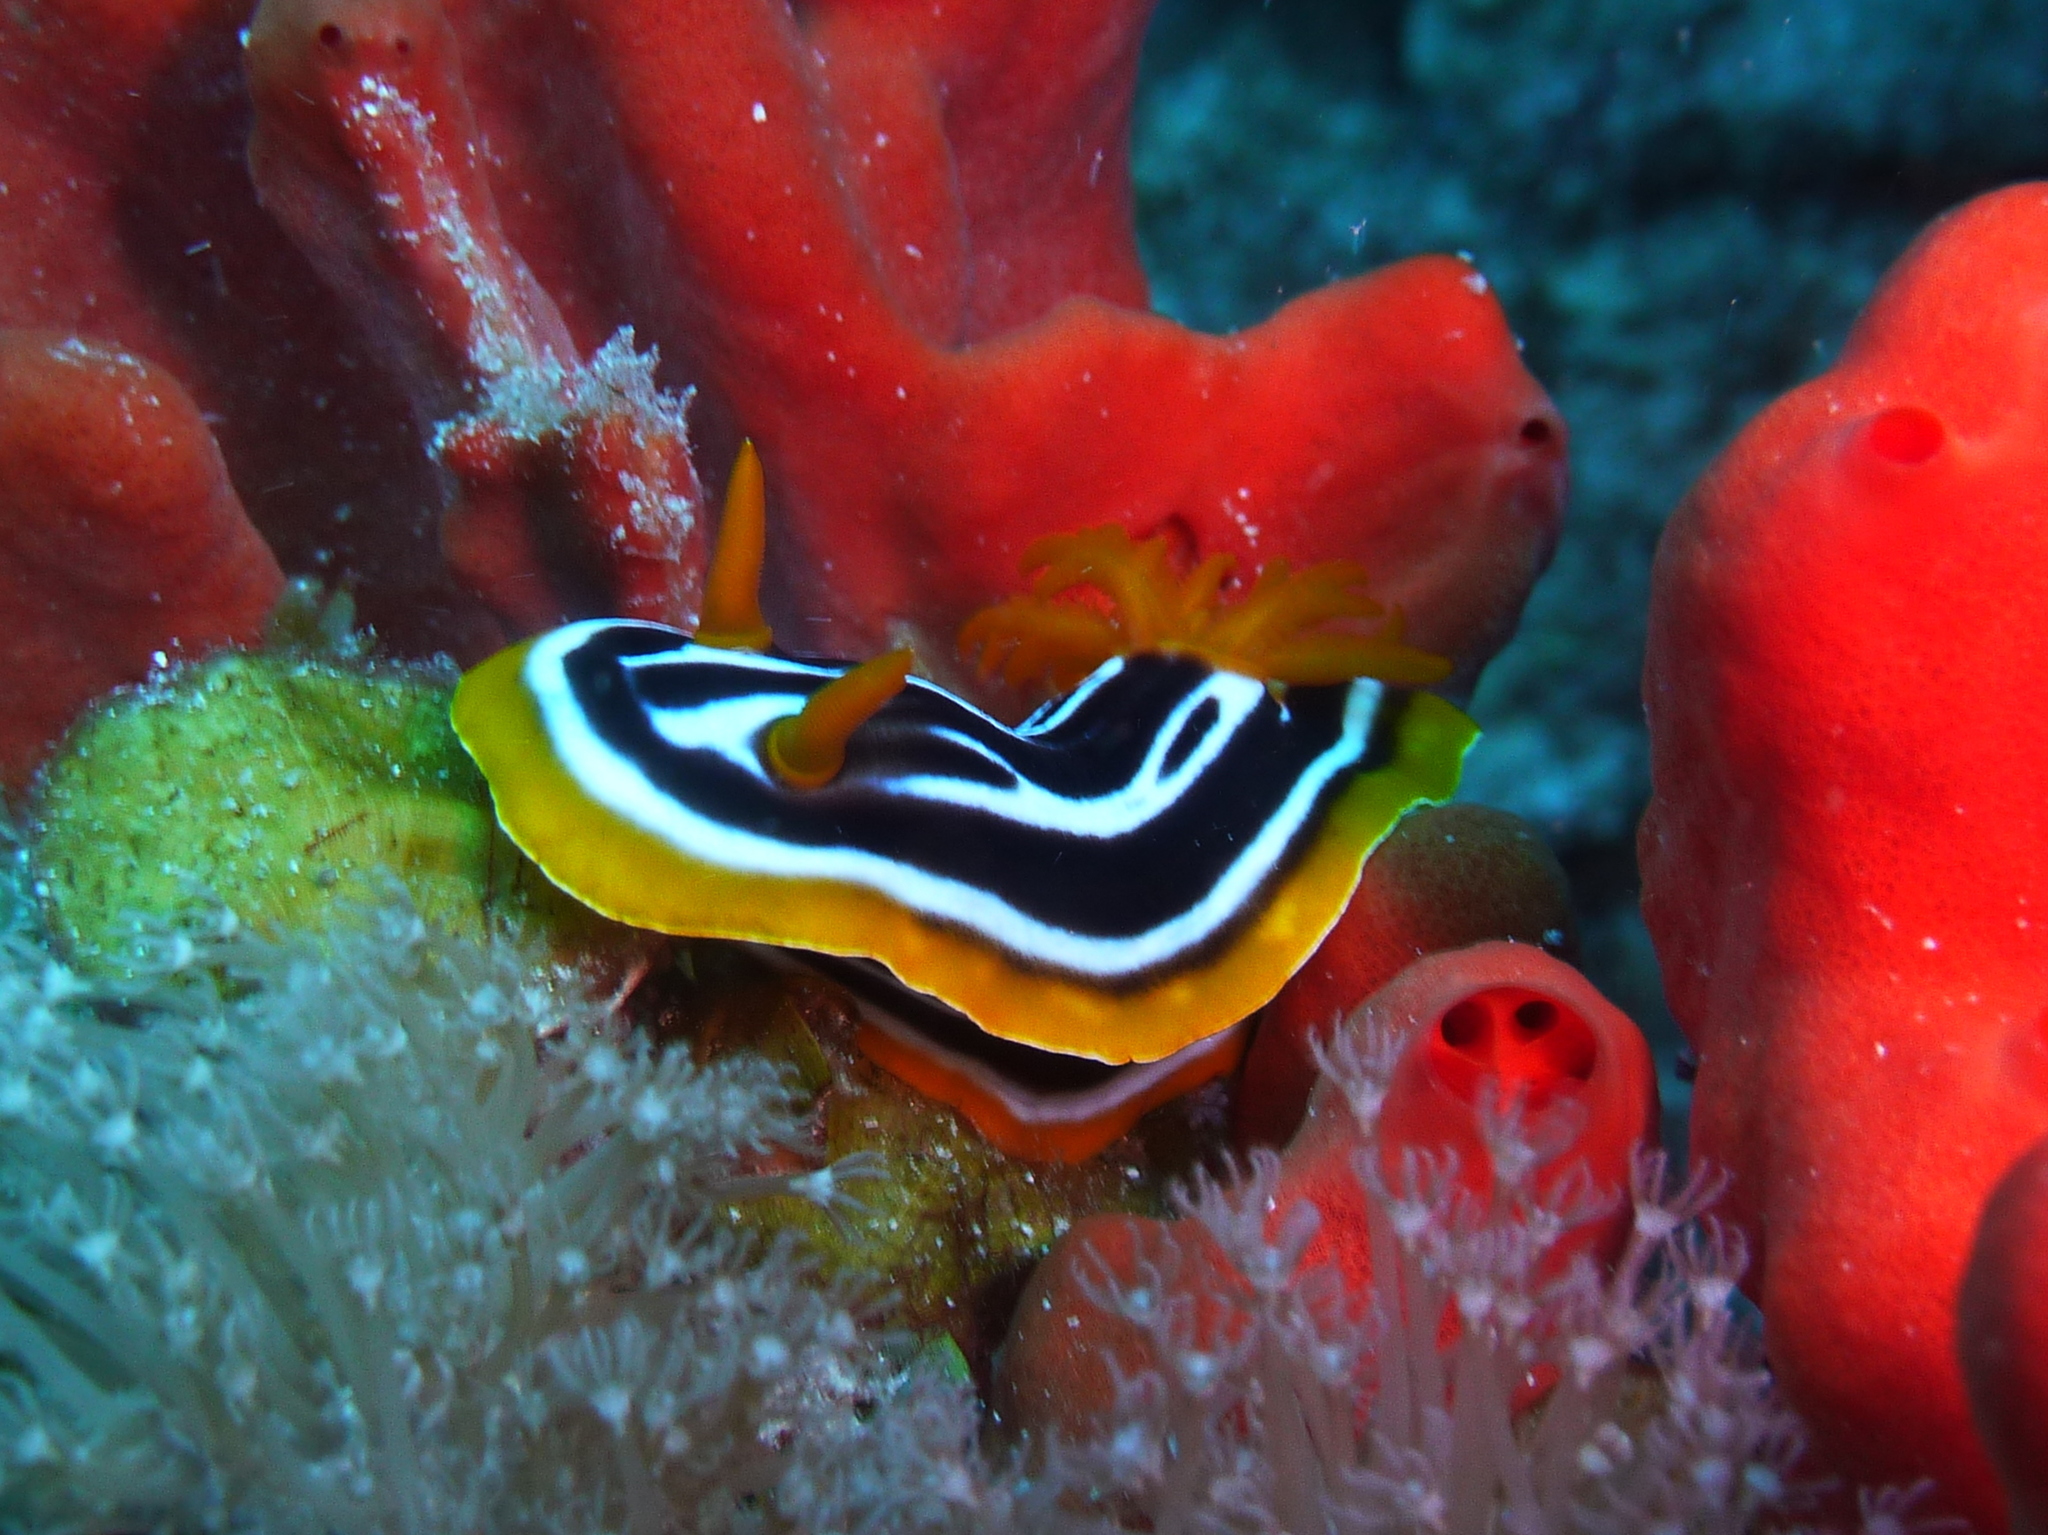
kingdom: Animalia
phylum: Mollusca
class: Gastropoda
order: Nudibranchia
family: Chromodorididae
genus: Chromodoris
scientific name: Chromodoris africana
